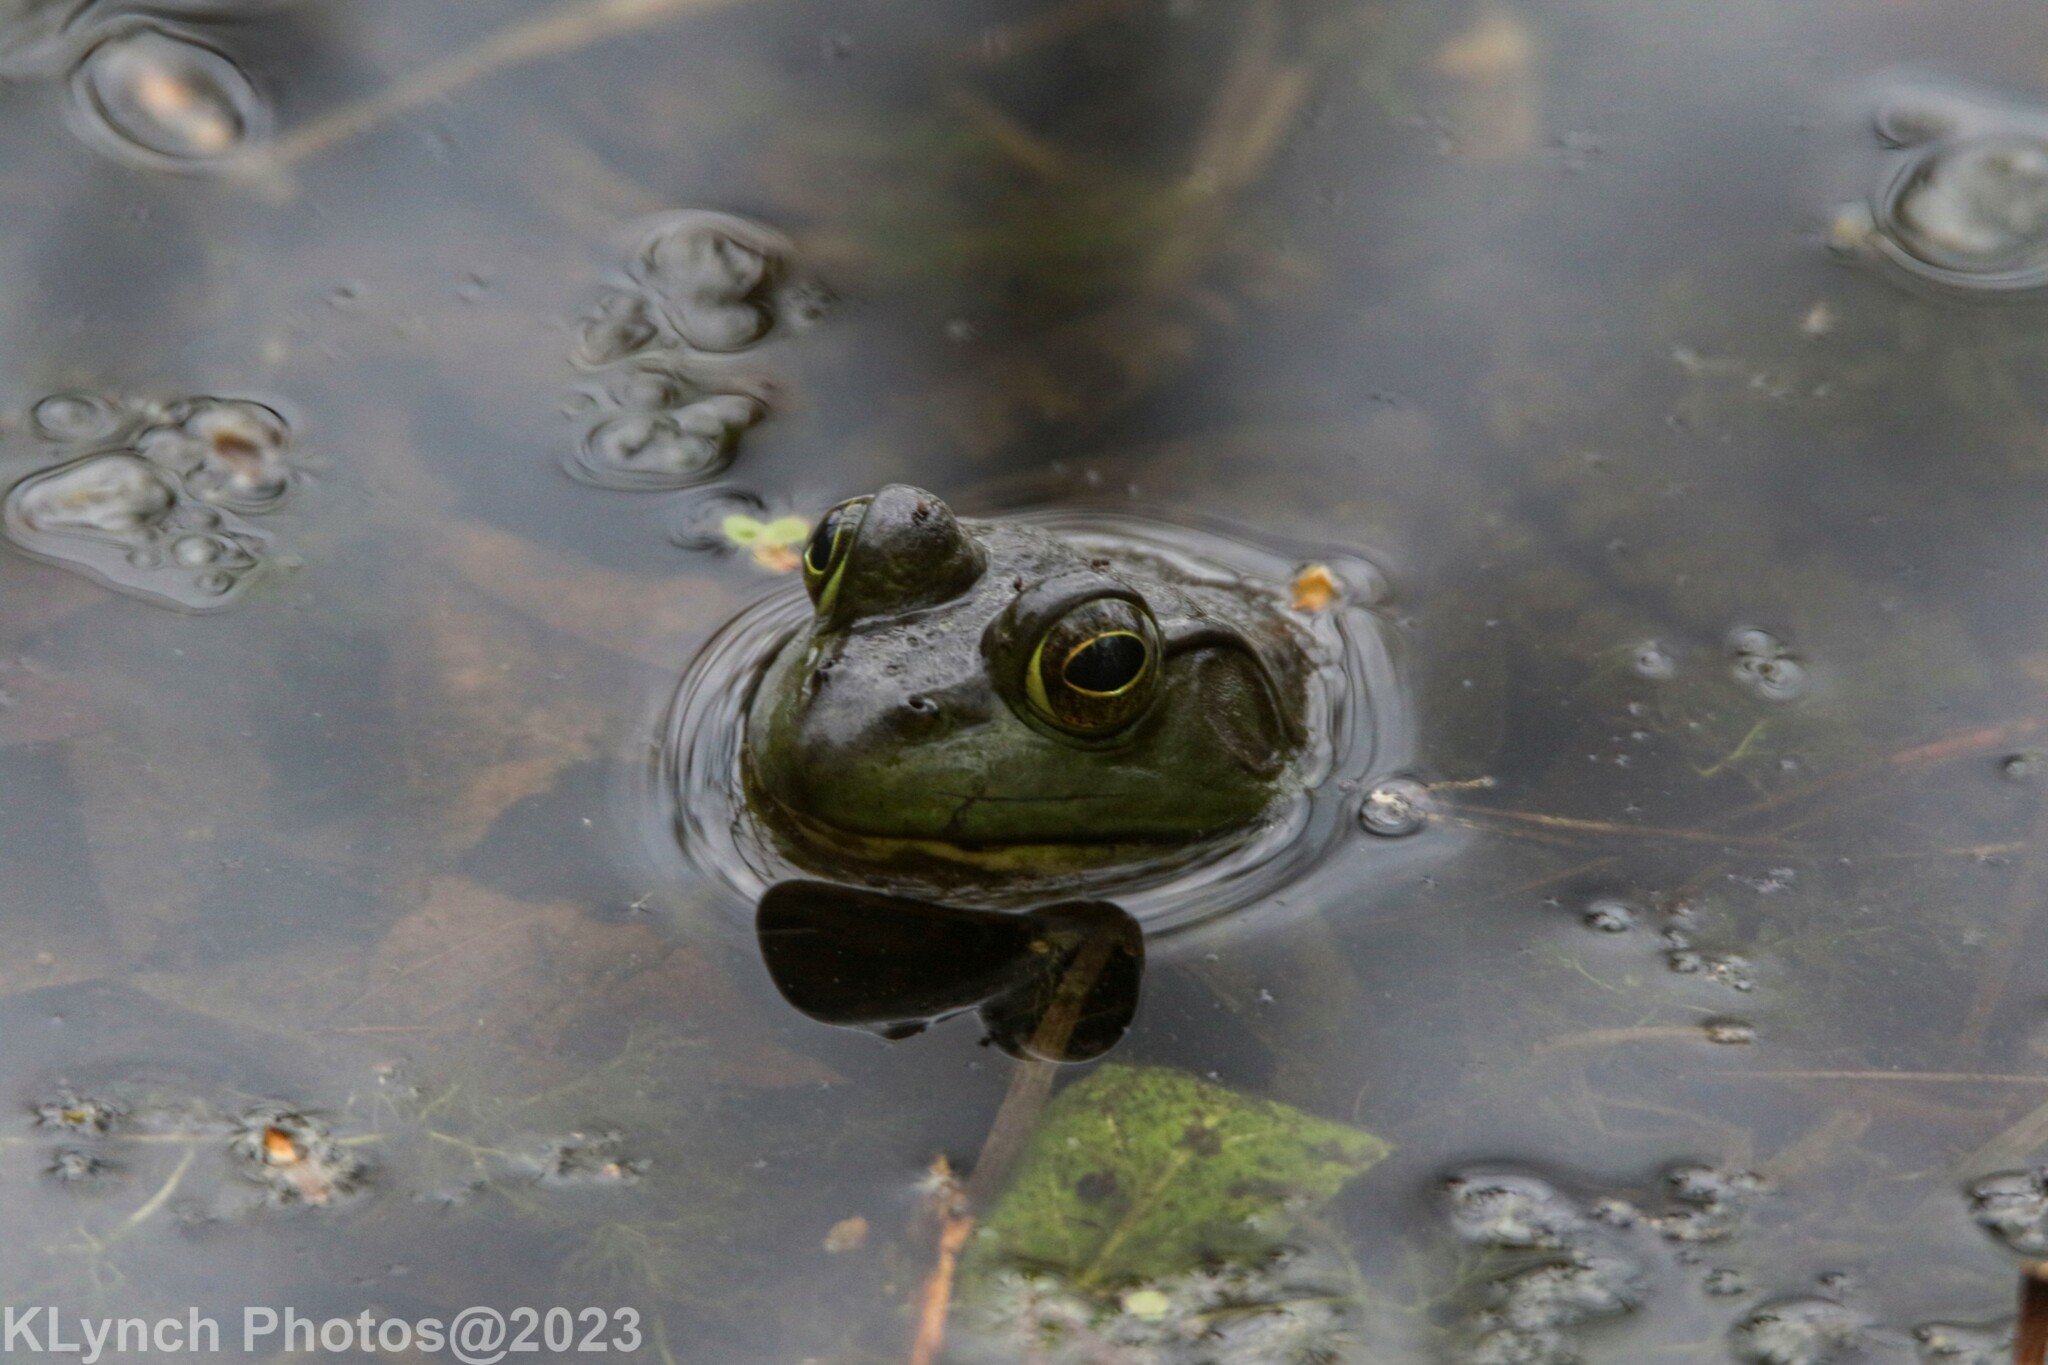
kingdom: Animalia
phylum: Chordata
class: Amphibia
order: Anura
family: Ranidae
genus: Lithobates
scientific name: Lithobates catesbeianus
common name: American bullfrog
